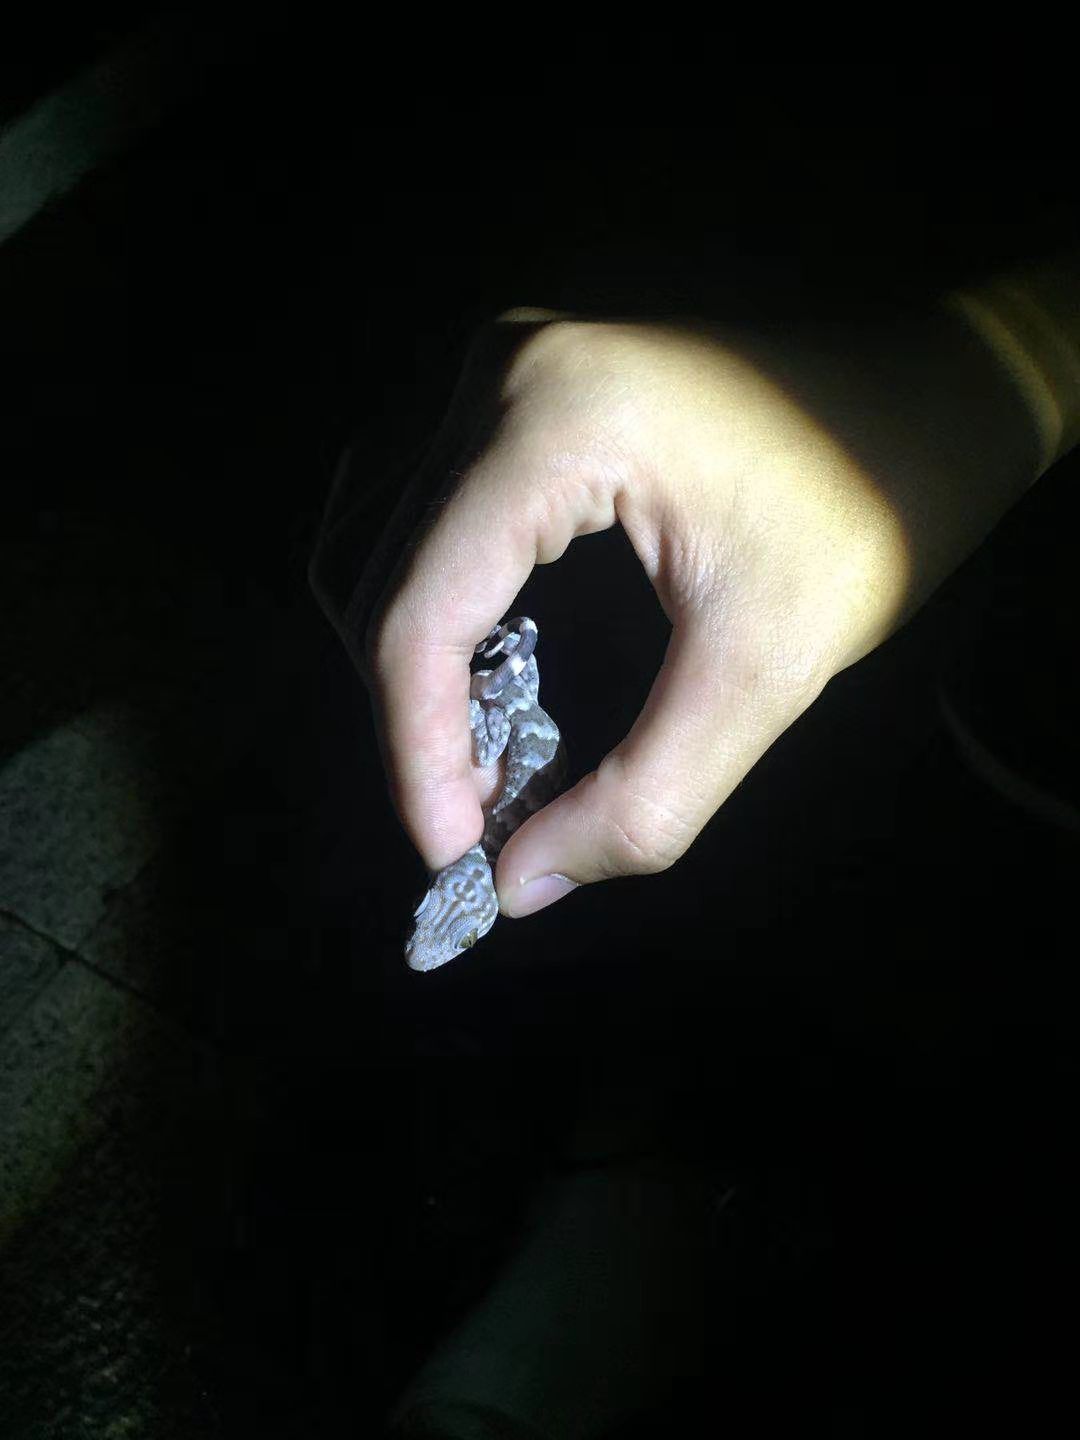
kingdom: Animalia
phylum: Chordata
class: Squamata
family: Gekkonidae
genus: Gekko
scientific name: Gekko reevesii
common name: Reeves’ tokay gecko
